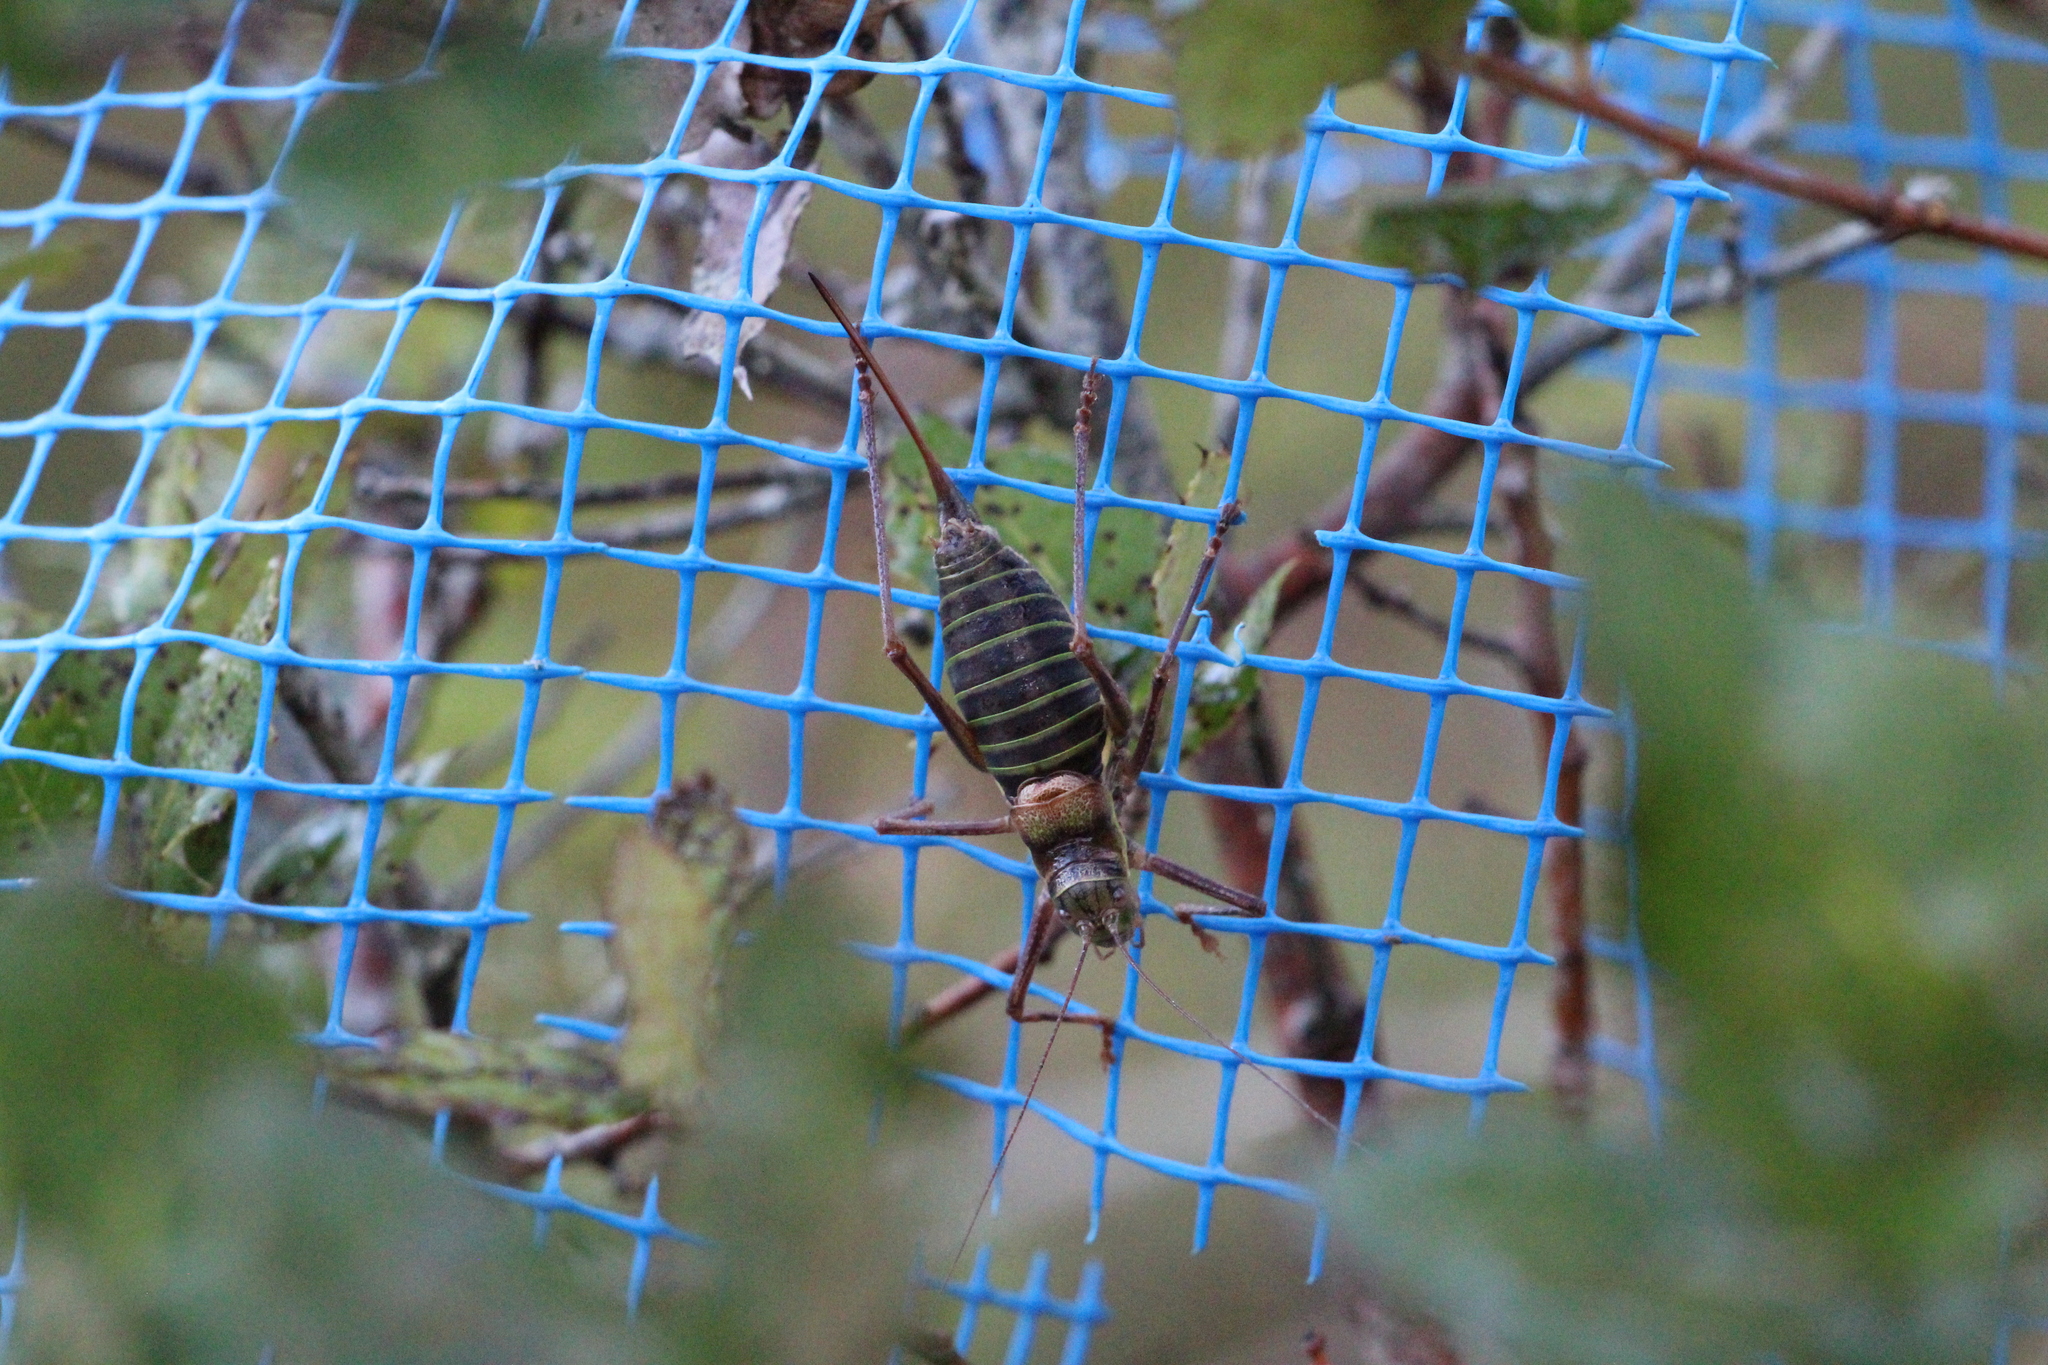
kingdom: Animalia
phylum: Arthropoda
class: Insecta
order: Orthoptera
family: Tettigoniidae
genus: Ephippiger
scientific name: Ephippiger diurnus
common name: Western saddle bush-cricket
